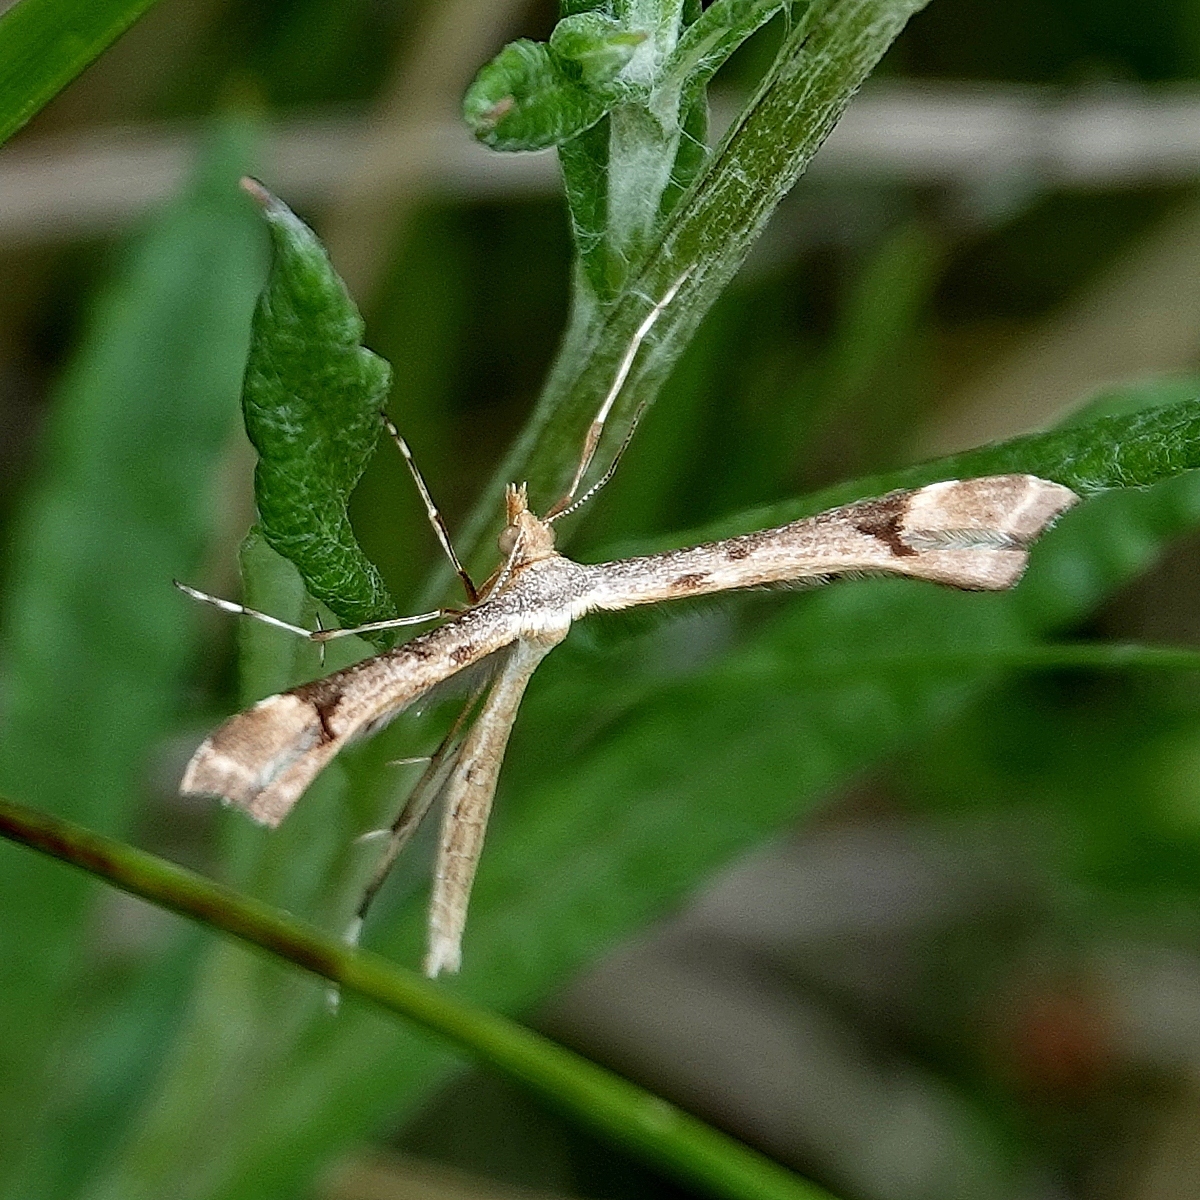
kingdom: Animalia
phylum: Arthropoda
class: Insecta
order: Lepidoptera
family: Pterophoridae
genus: Sinpunctiptilia
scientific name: Sinpunctiptilia emissalis
